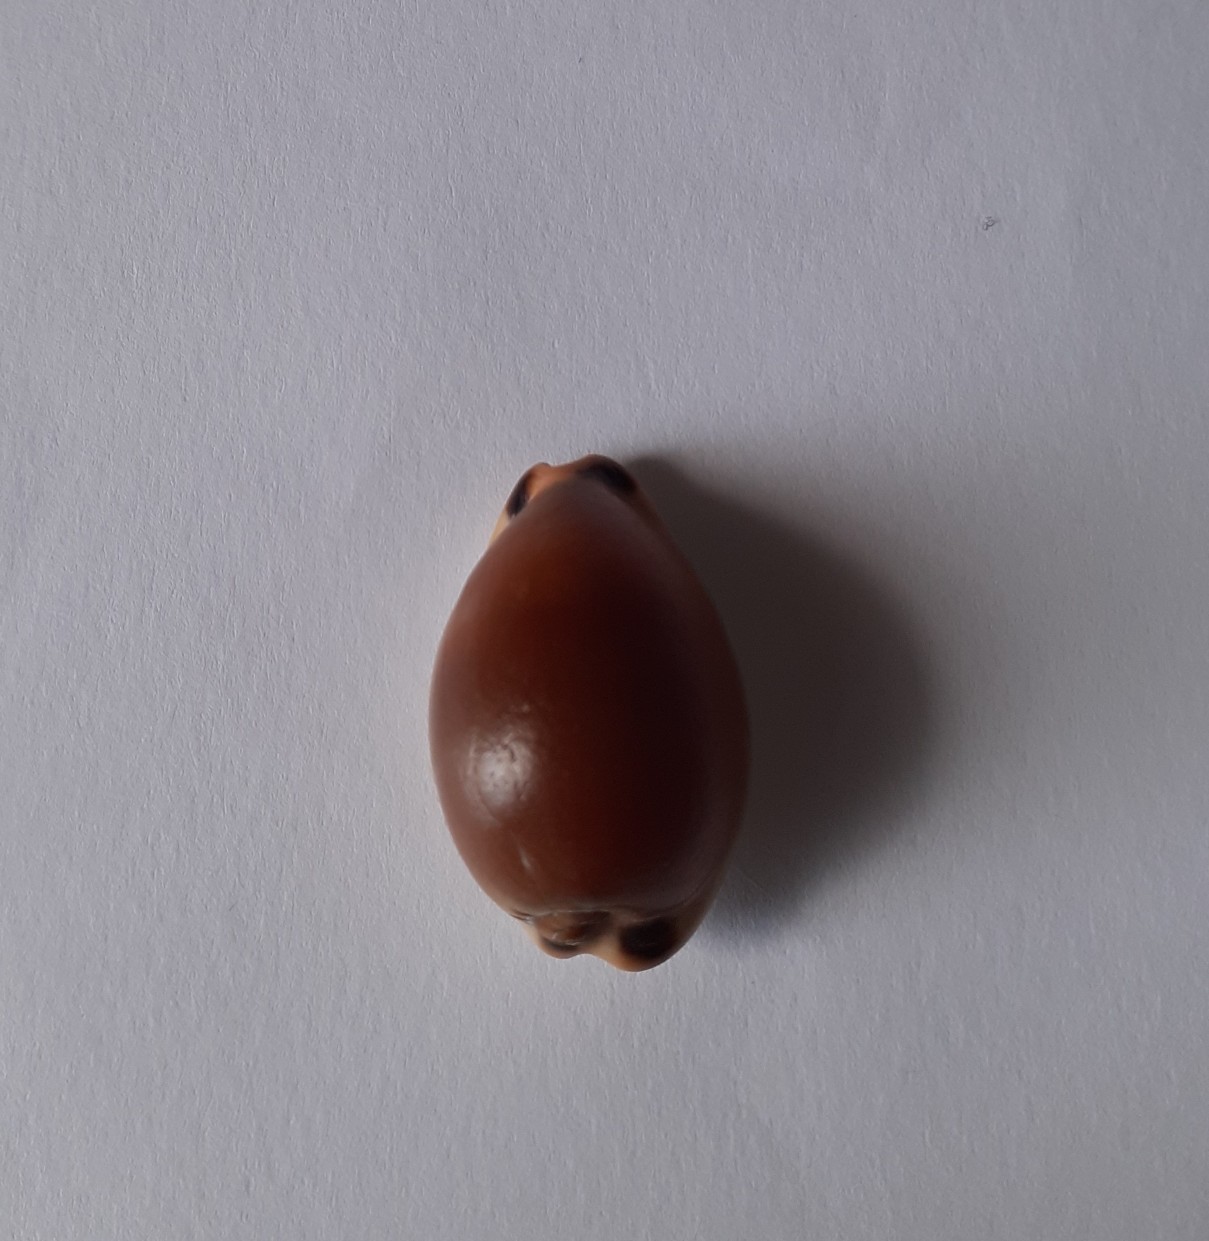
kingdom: Animalia
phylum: Mollusca
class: Gastropoda
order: Littorinimorpha
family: Cypraeidae
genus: Luria
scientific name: Luria lurida
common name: Brown cowry
